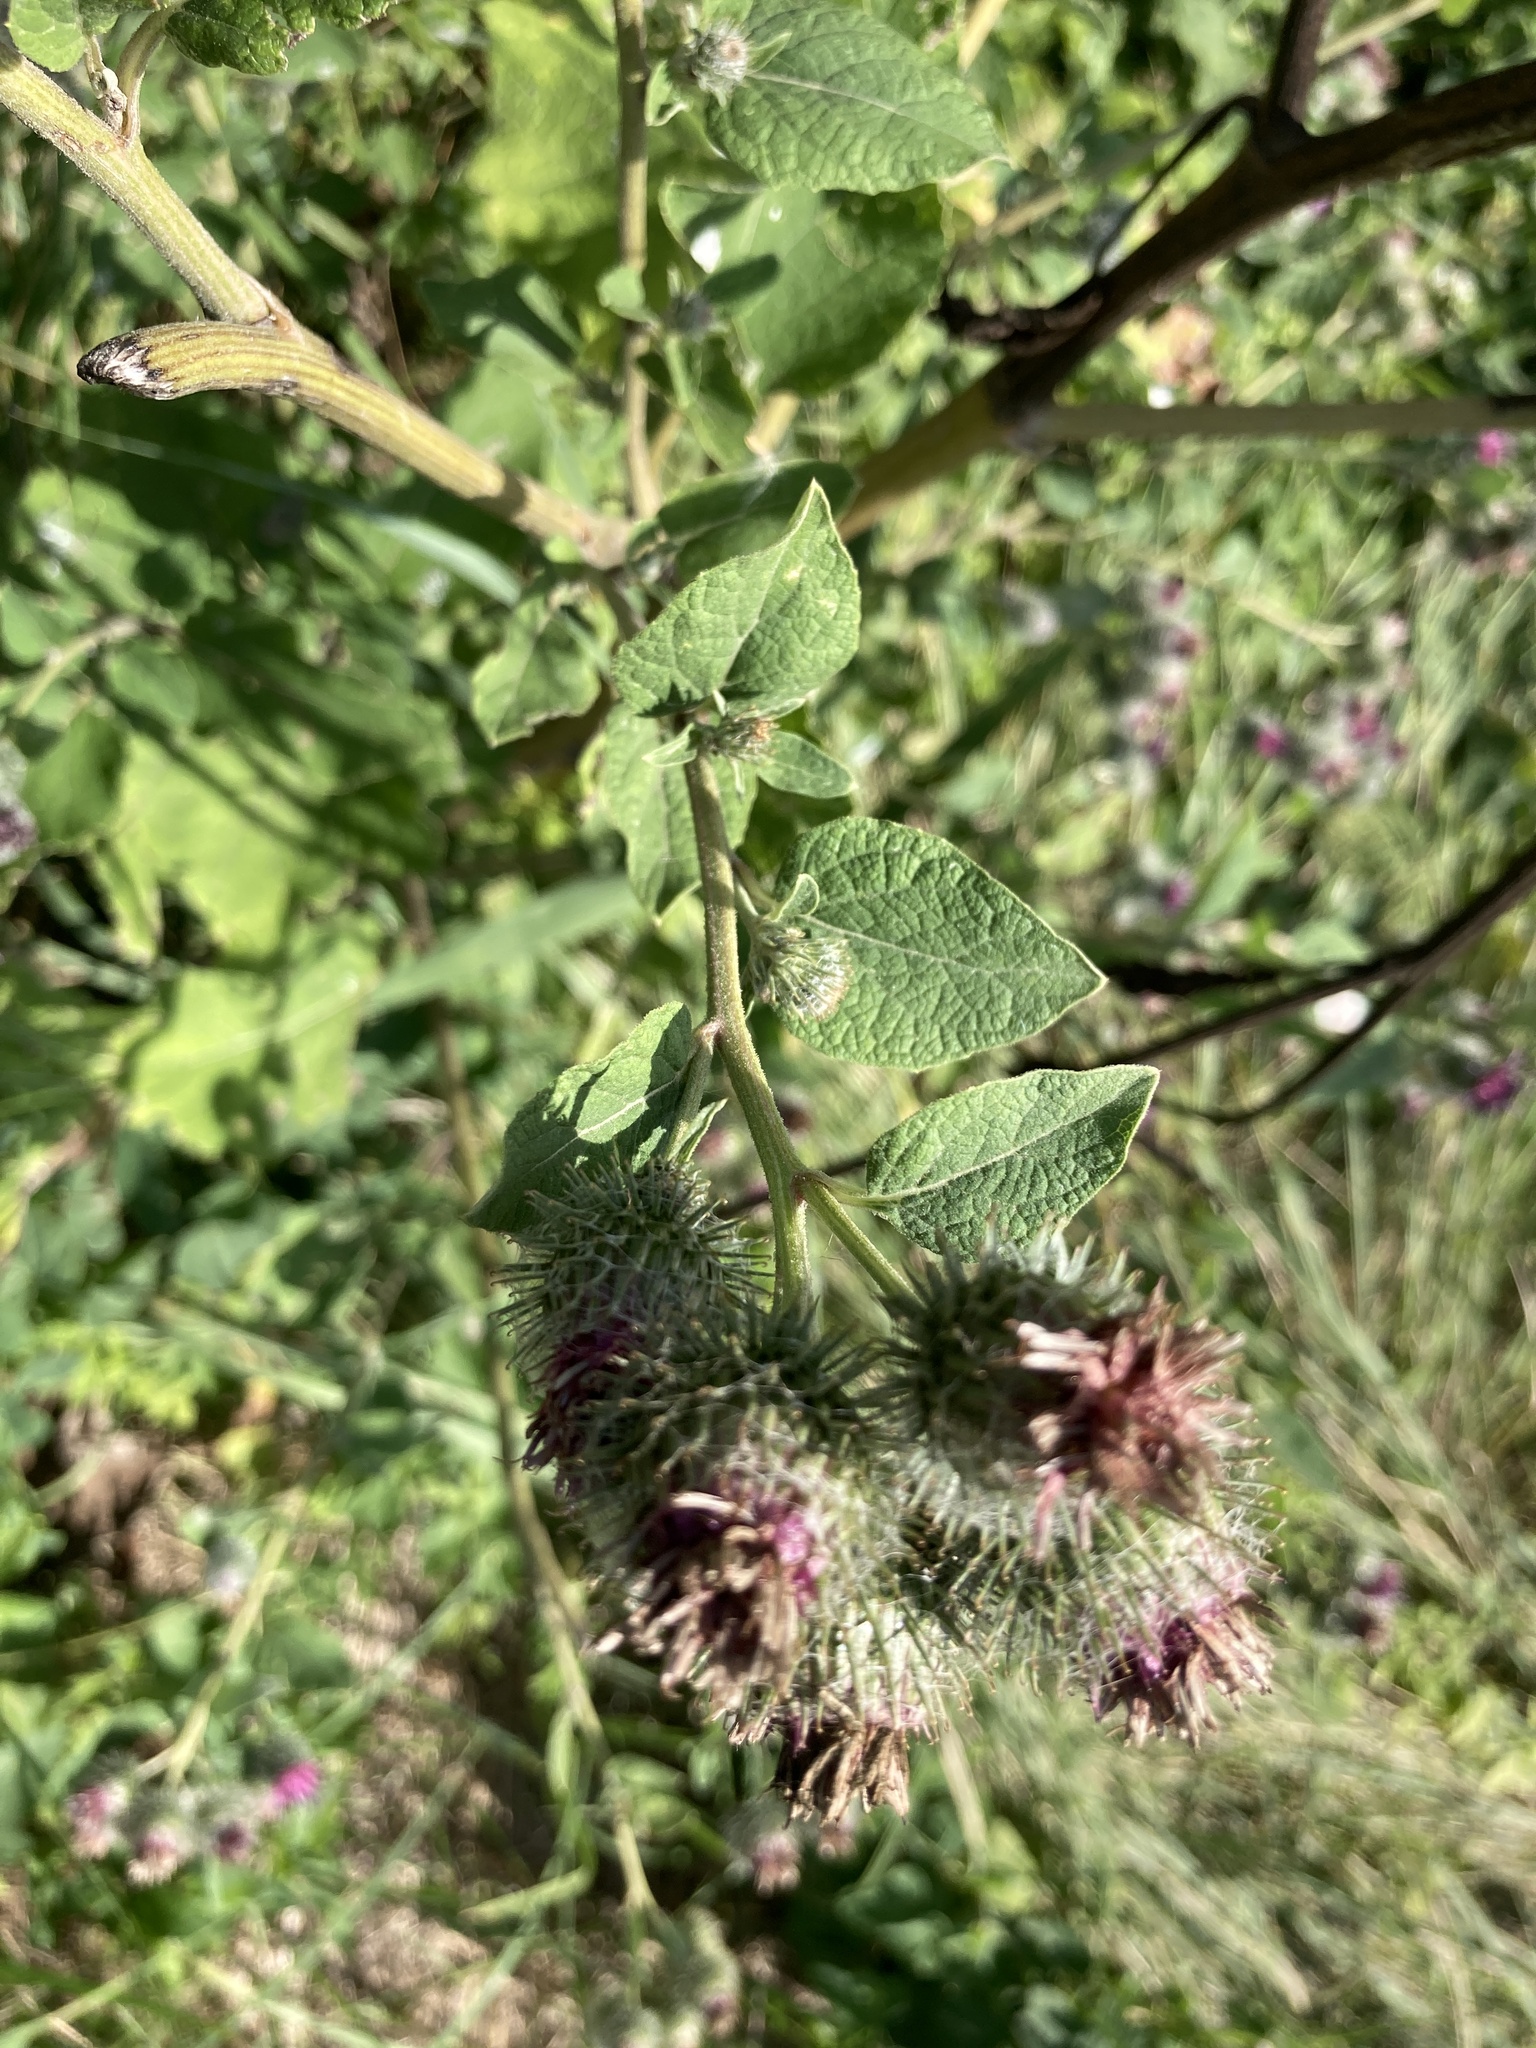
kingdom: Plantae
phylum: Tracheophyta
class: Magnoliopsida
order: Asterales
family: Asteraceae
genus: Arctium
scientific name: Arctium tomentosum
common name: Woolly burdock
